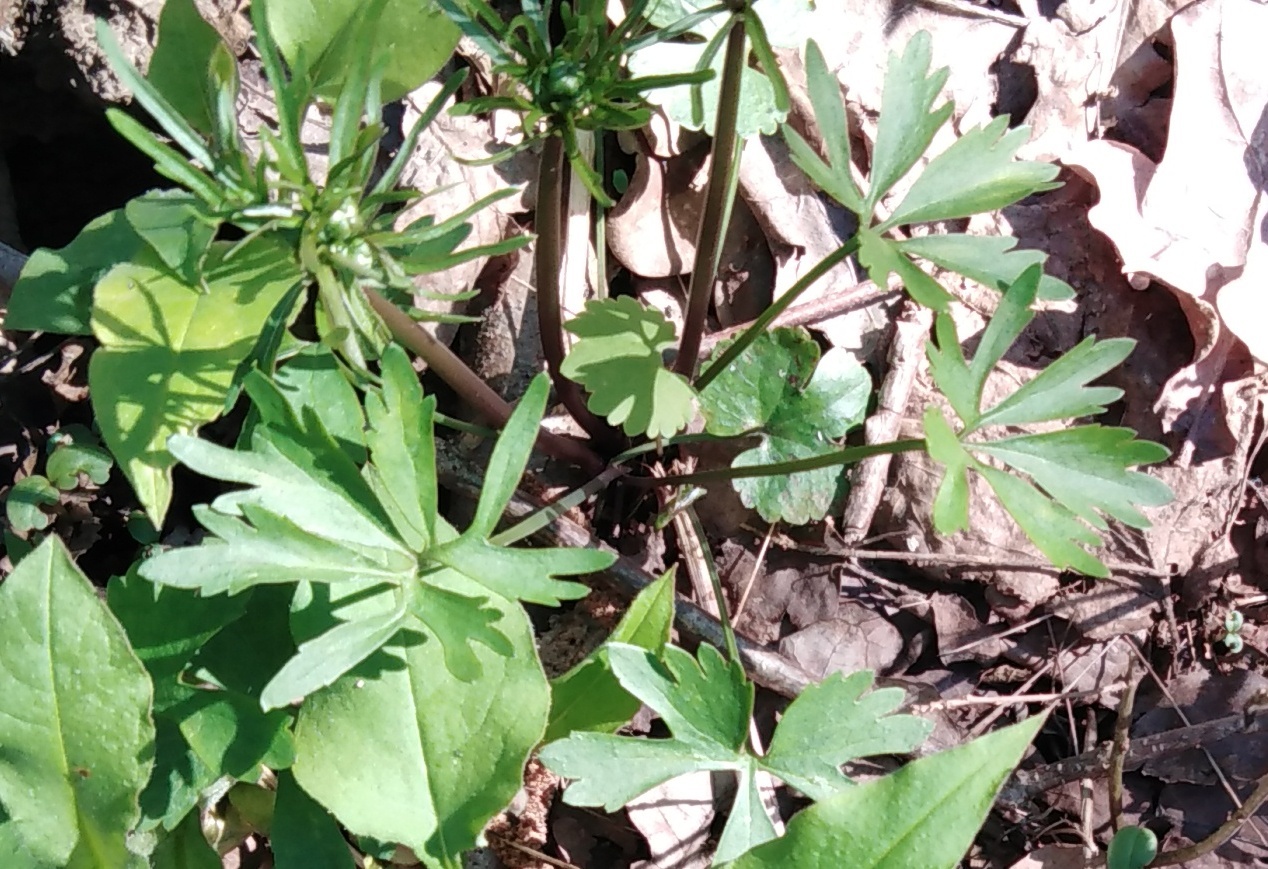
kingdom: Plantae
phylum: Tracheophyta
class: Magnoliopsida
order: Ranunculales
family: Ranunculaceae
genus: Ranunculus
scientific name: Ranunculus auricomus
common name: Goldilocks buttercup
